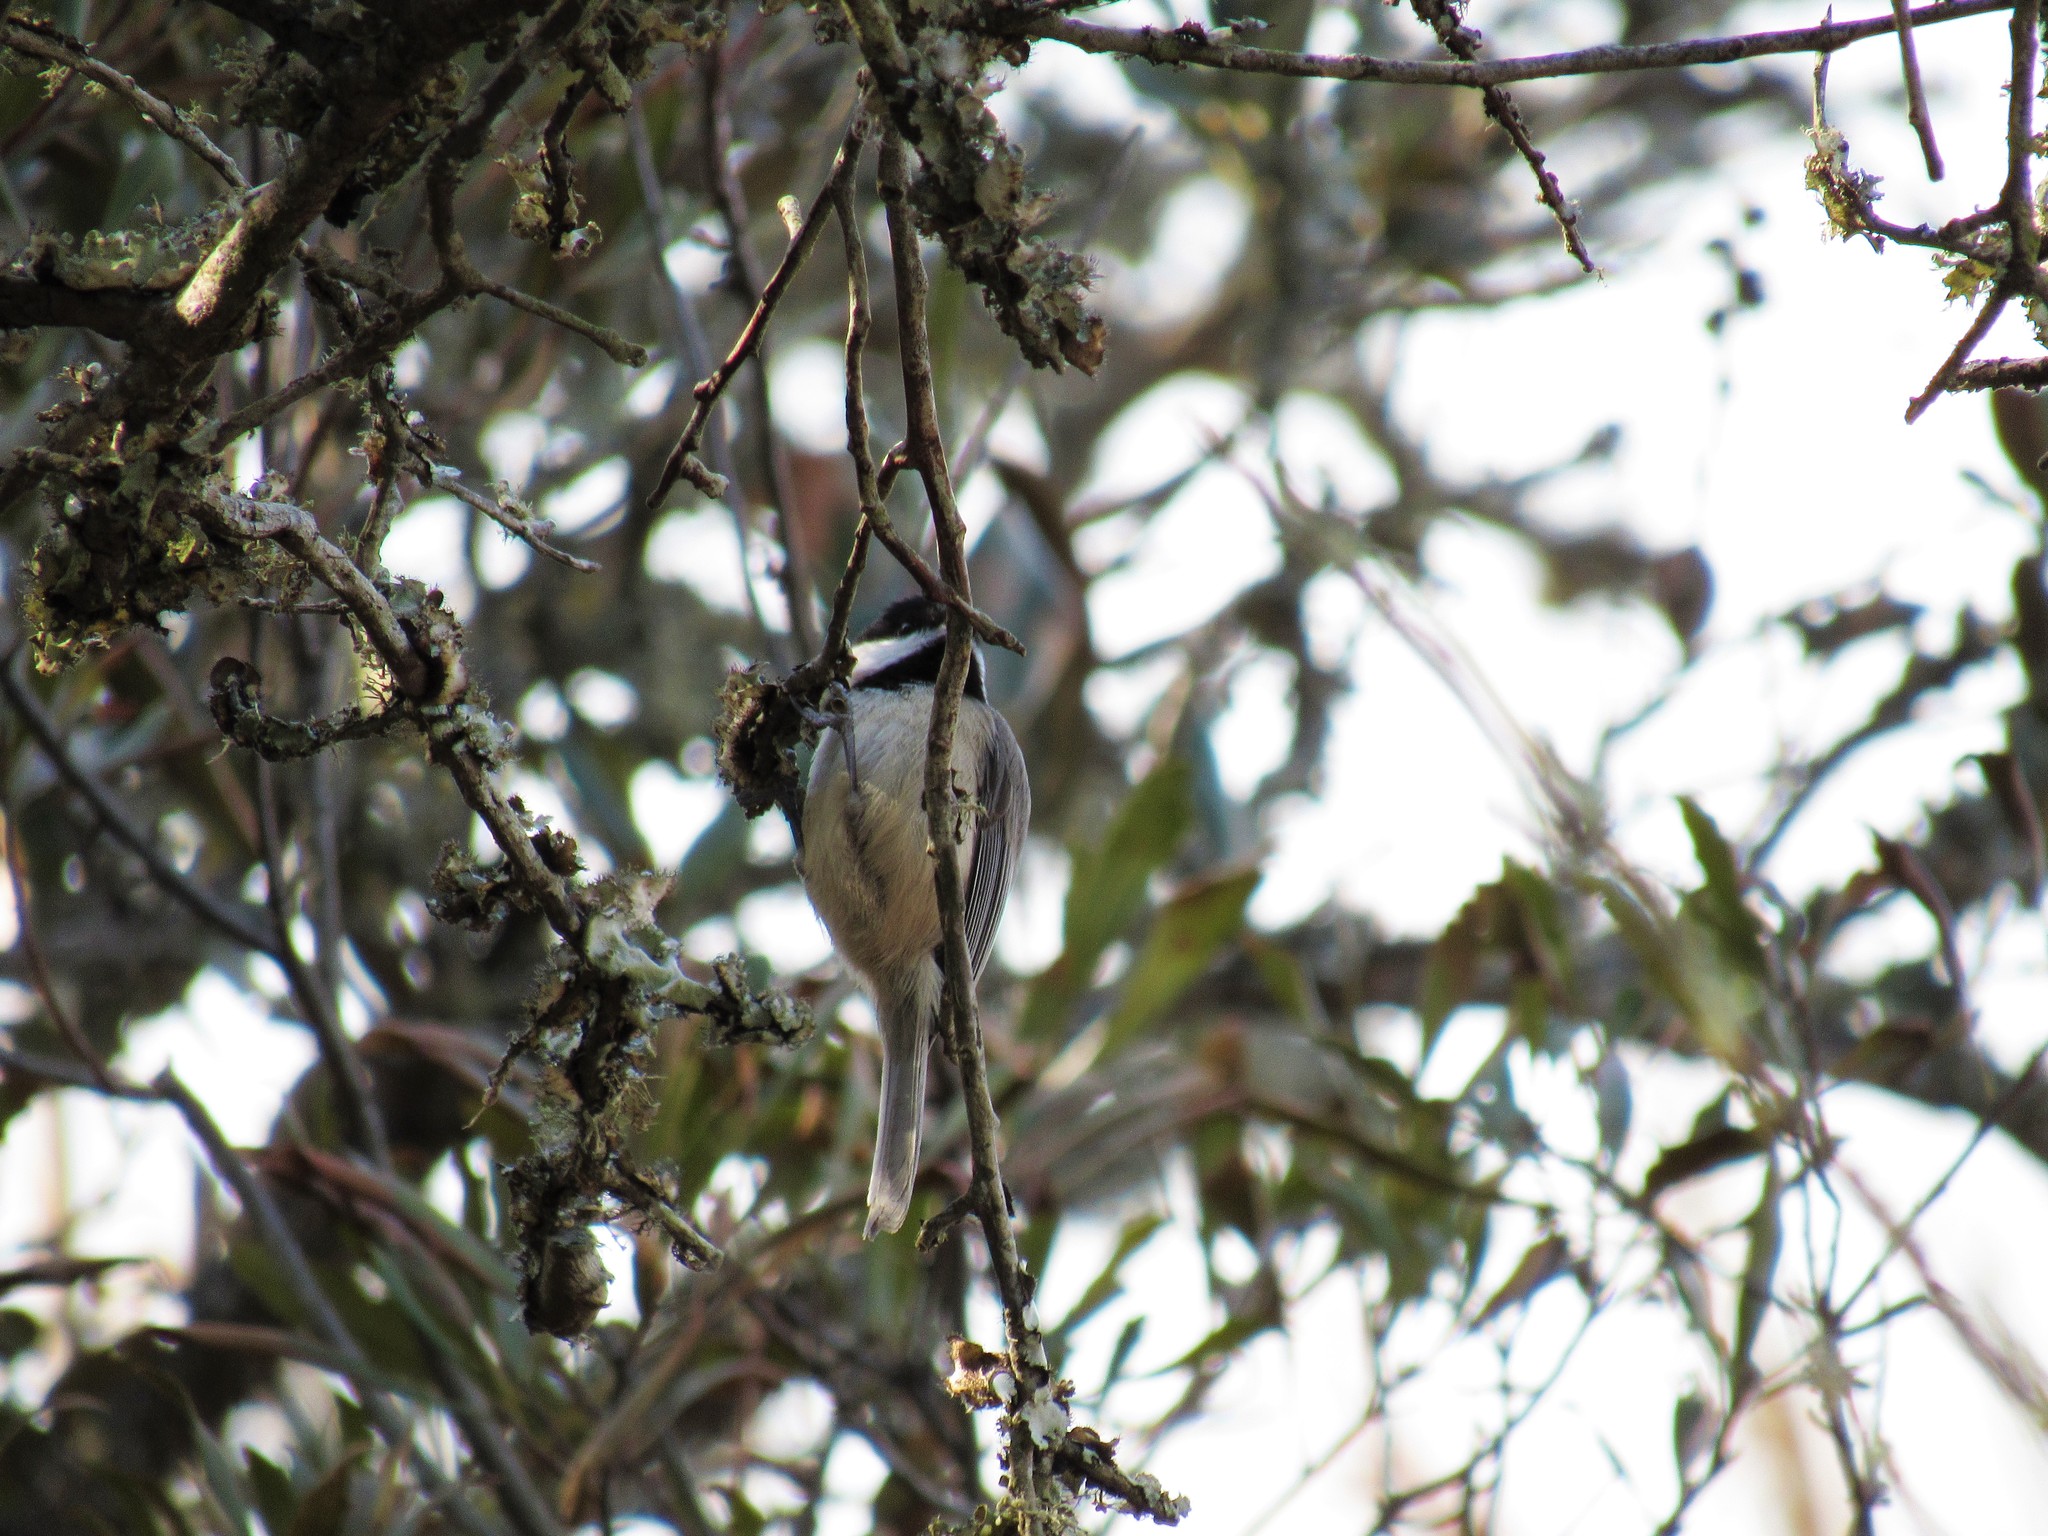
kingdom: Animalia
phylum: Chordata
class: Aves
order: Passeriformes
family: Paridae
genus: Poecile
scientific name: Poecile carolinensis
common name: Carolina chickadee
